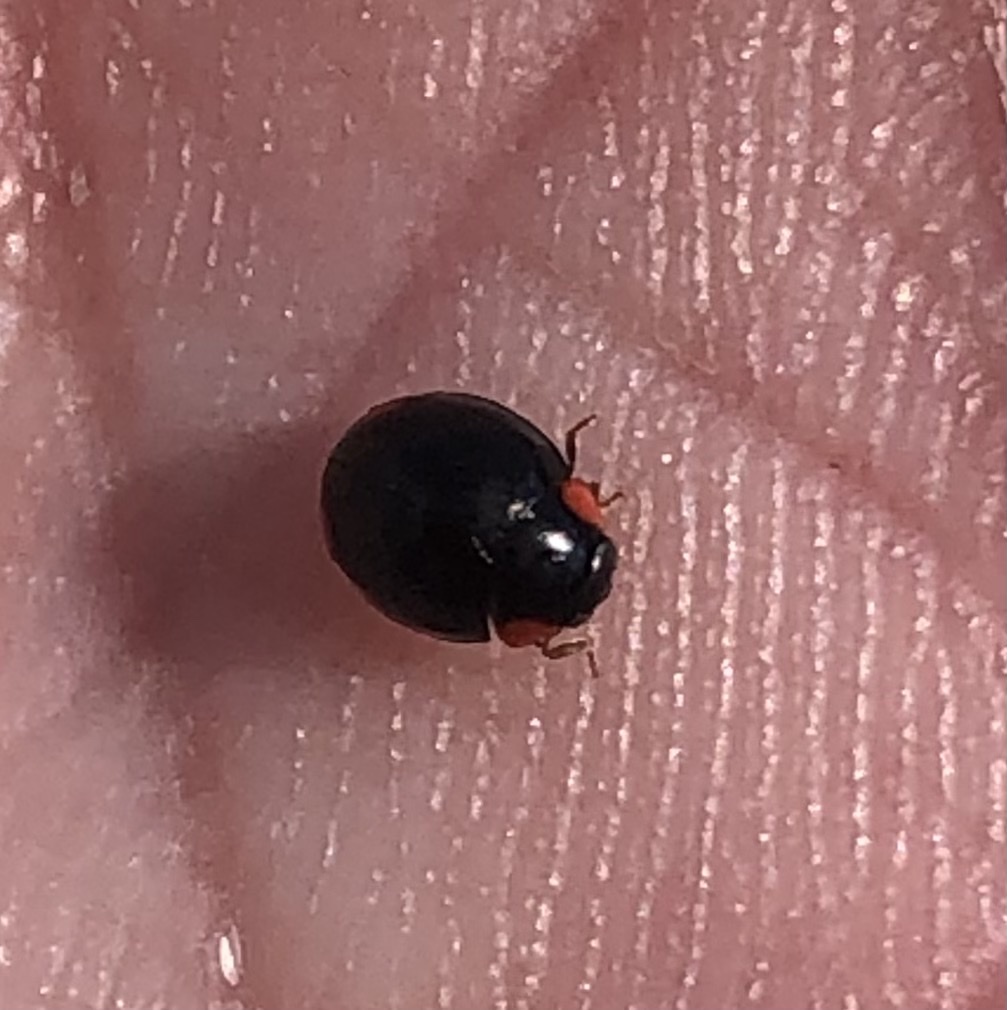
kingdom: Animalia
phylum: Arthropoda
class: Insecta
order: Coleoptera
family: Coccinellidae
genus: Hyperaspis
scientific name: Hyperaspis bigeminata
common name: Bigeminate sigil lady beetle
